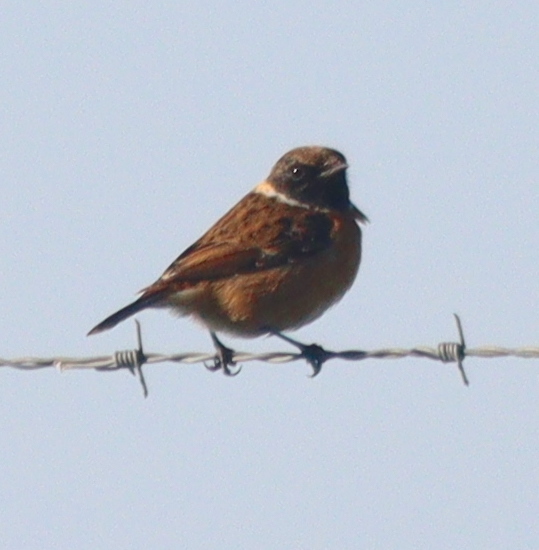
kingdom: Animalia
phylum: Chordata
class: Aves
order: Passeriformes
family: Muscicapidae
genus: Saxicola
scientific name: Saxicola rubicola
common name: European stonechat
